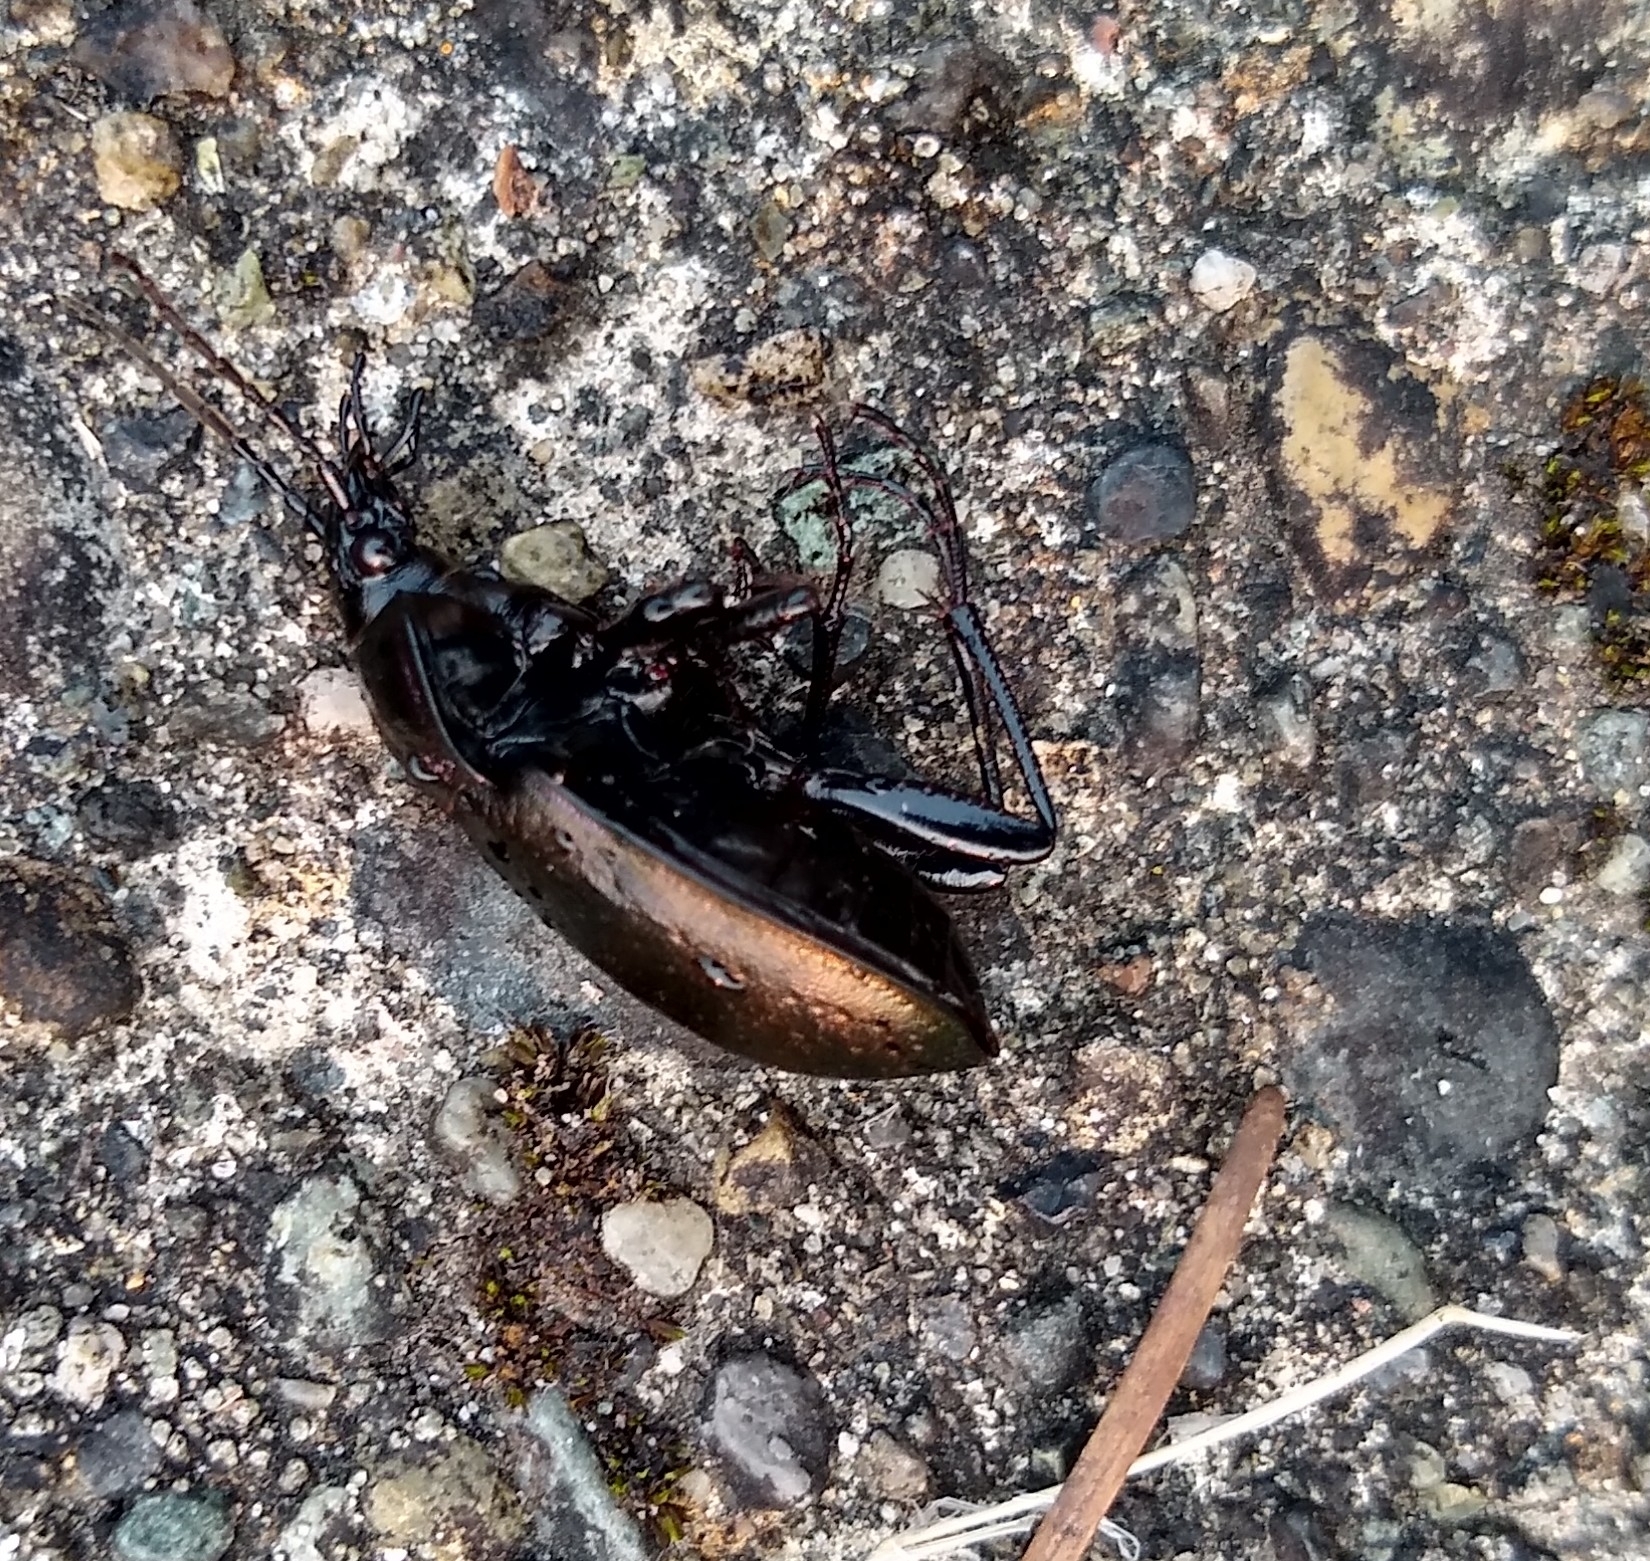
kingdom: Animalia
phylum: Arthropoda
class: Insecta
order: Coleoptera
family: Carabidae
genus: Carabus
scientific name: Carabus nemoralis
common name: European ground beetle
